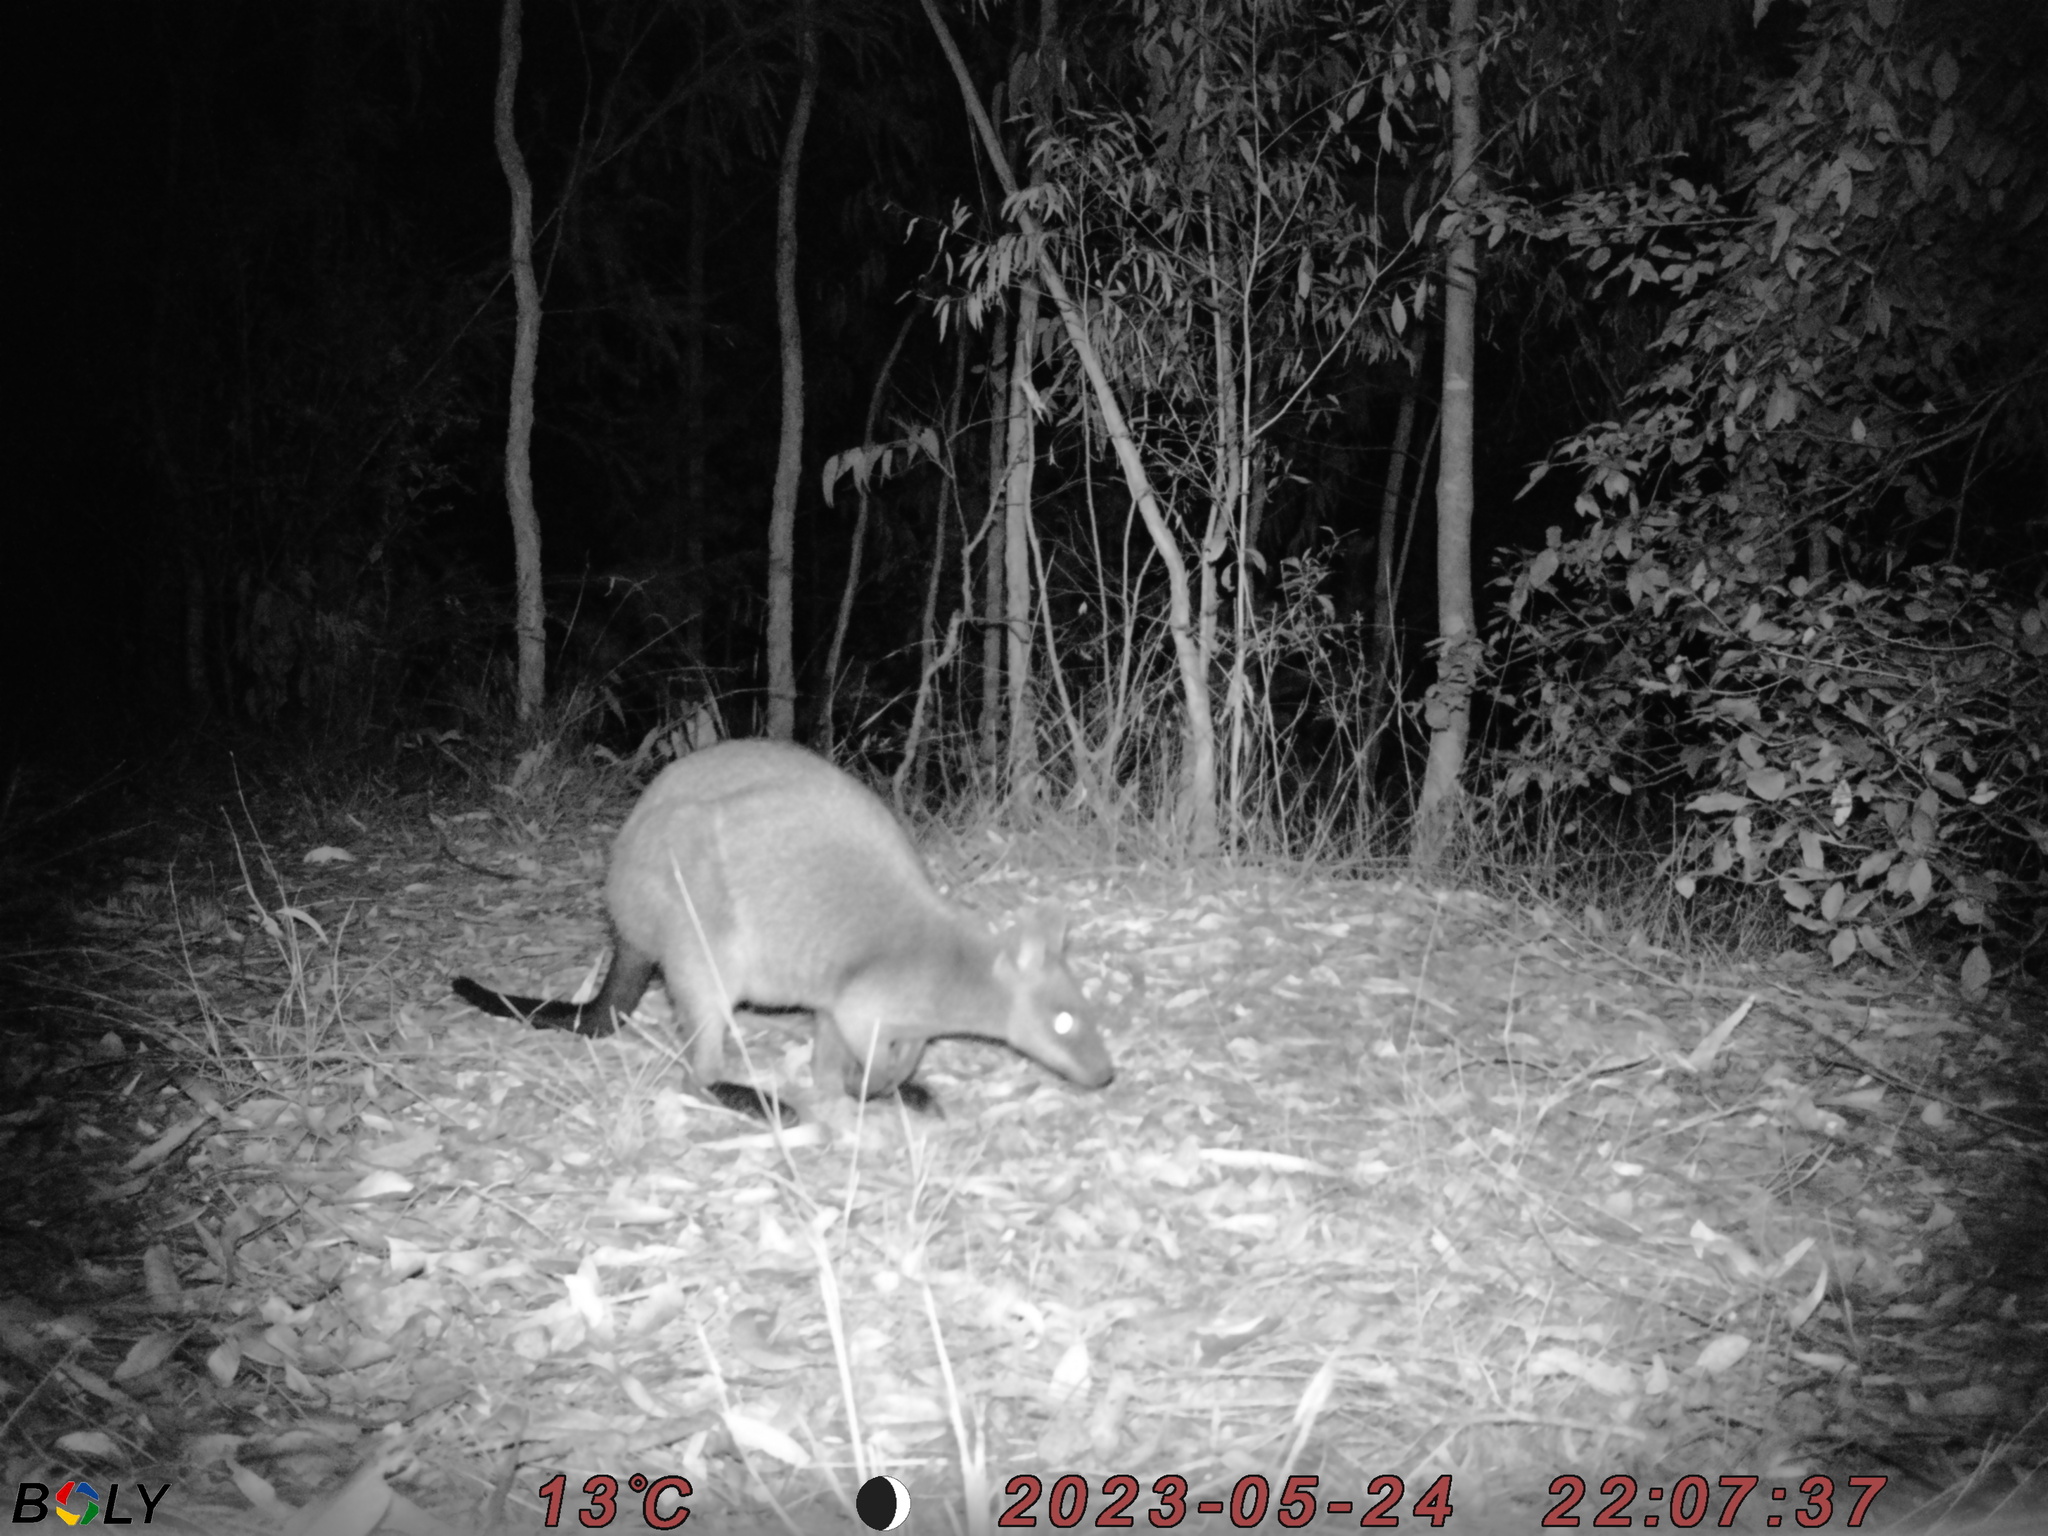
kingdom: Animalia
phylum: Chordata
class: Mammalia
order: Diprotodontia
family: Macropodidae
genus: Wallabia
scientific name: Wallabia bicolor
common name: Swamp wallaby
